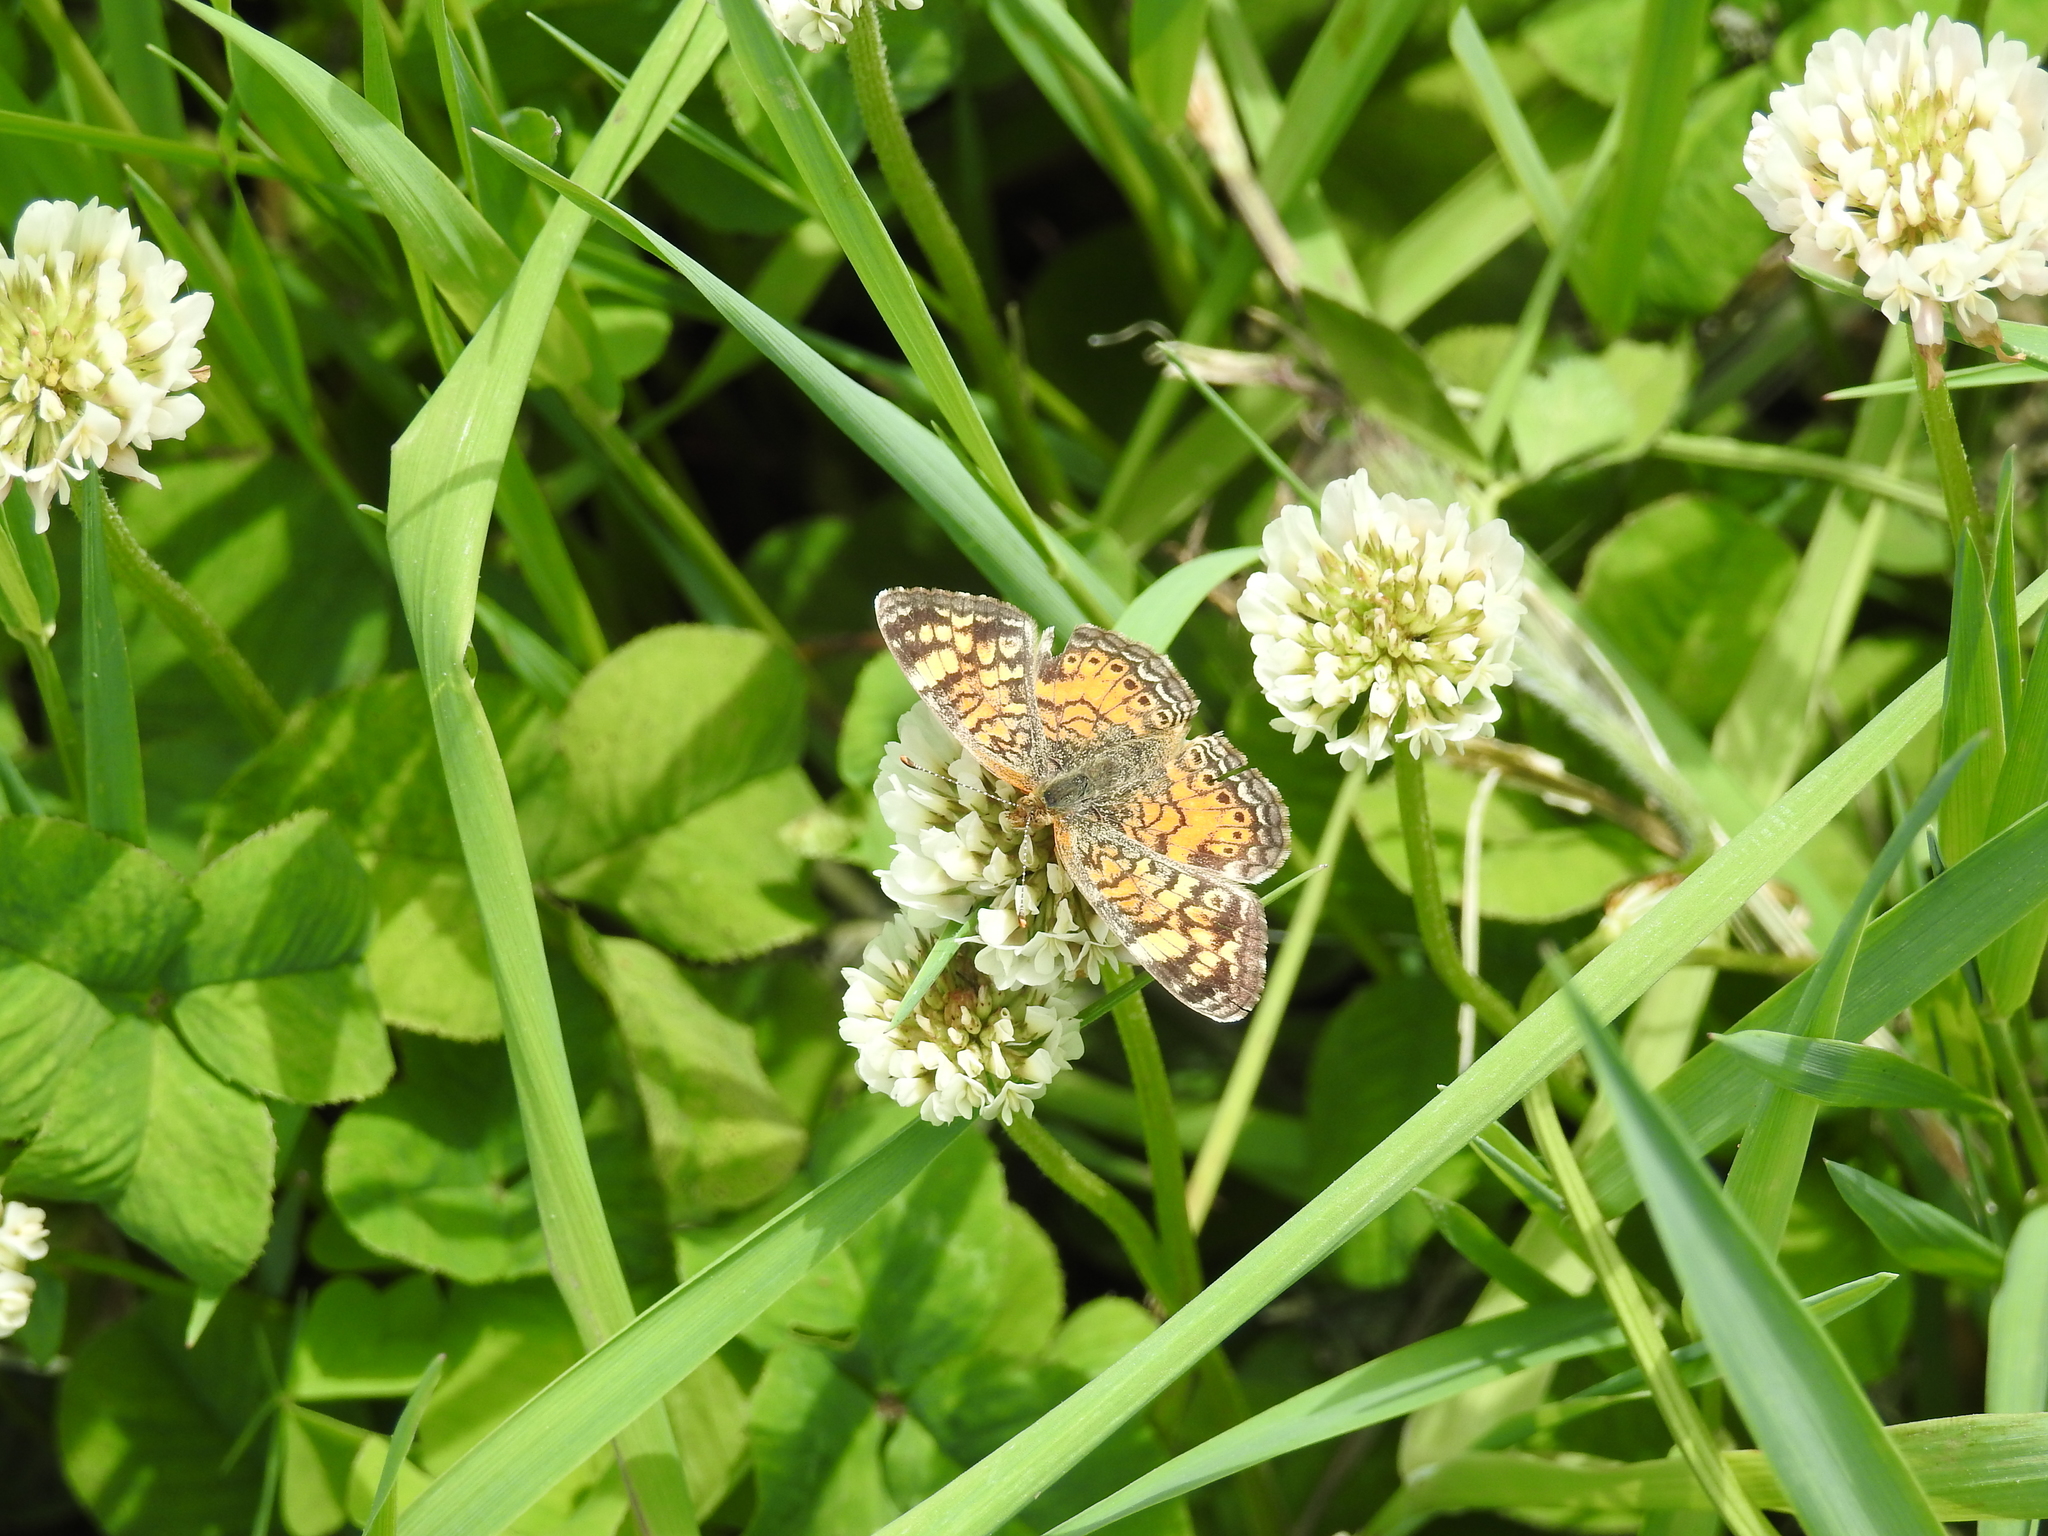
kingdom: Animalia
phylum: Arthropoda
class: Insecta
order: Lepidoptera
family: Nymphalidae
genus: Phyciodes
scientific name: Phyciodes tharos
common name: Pearl crescent
